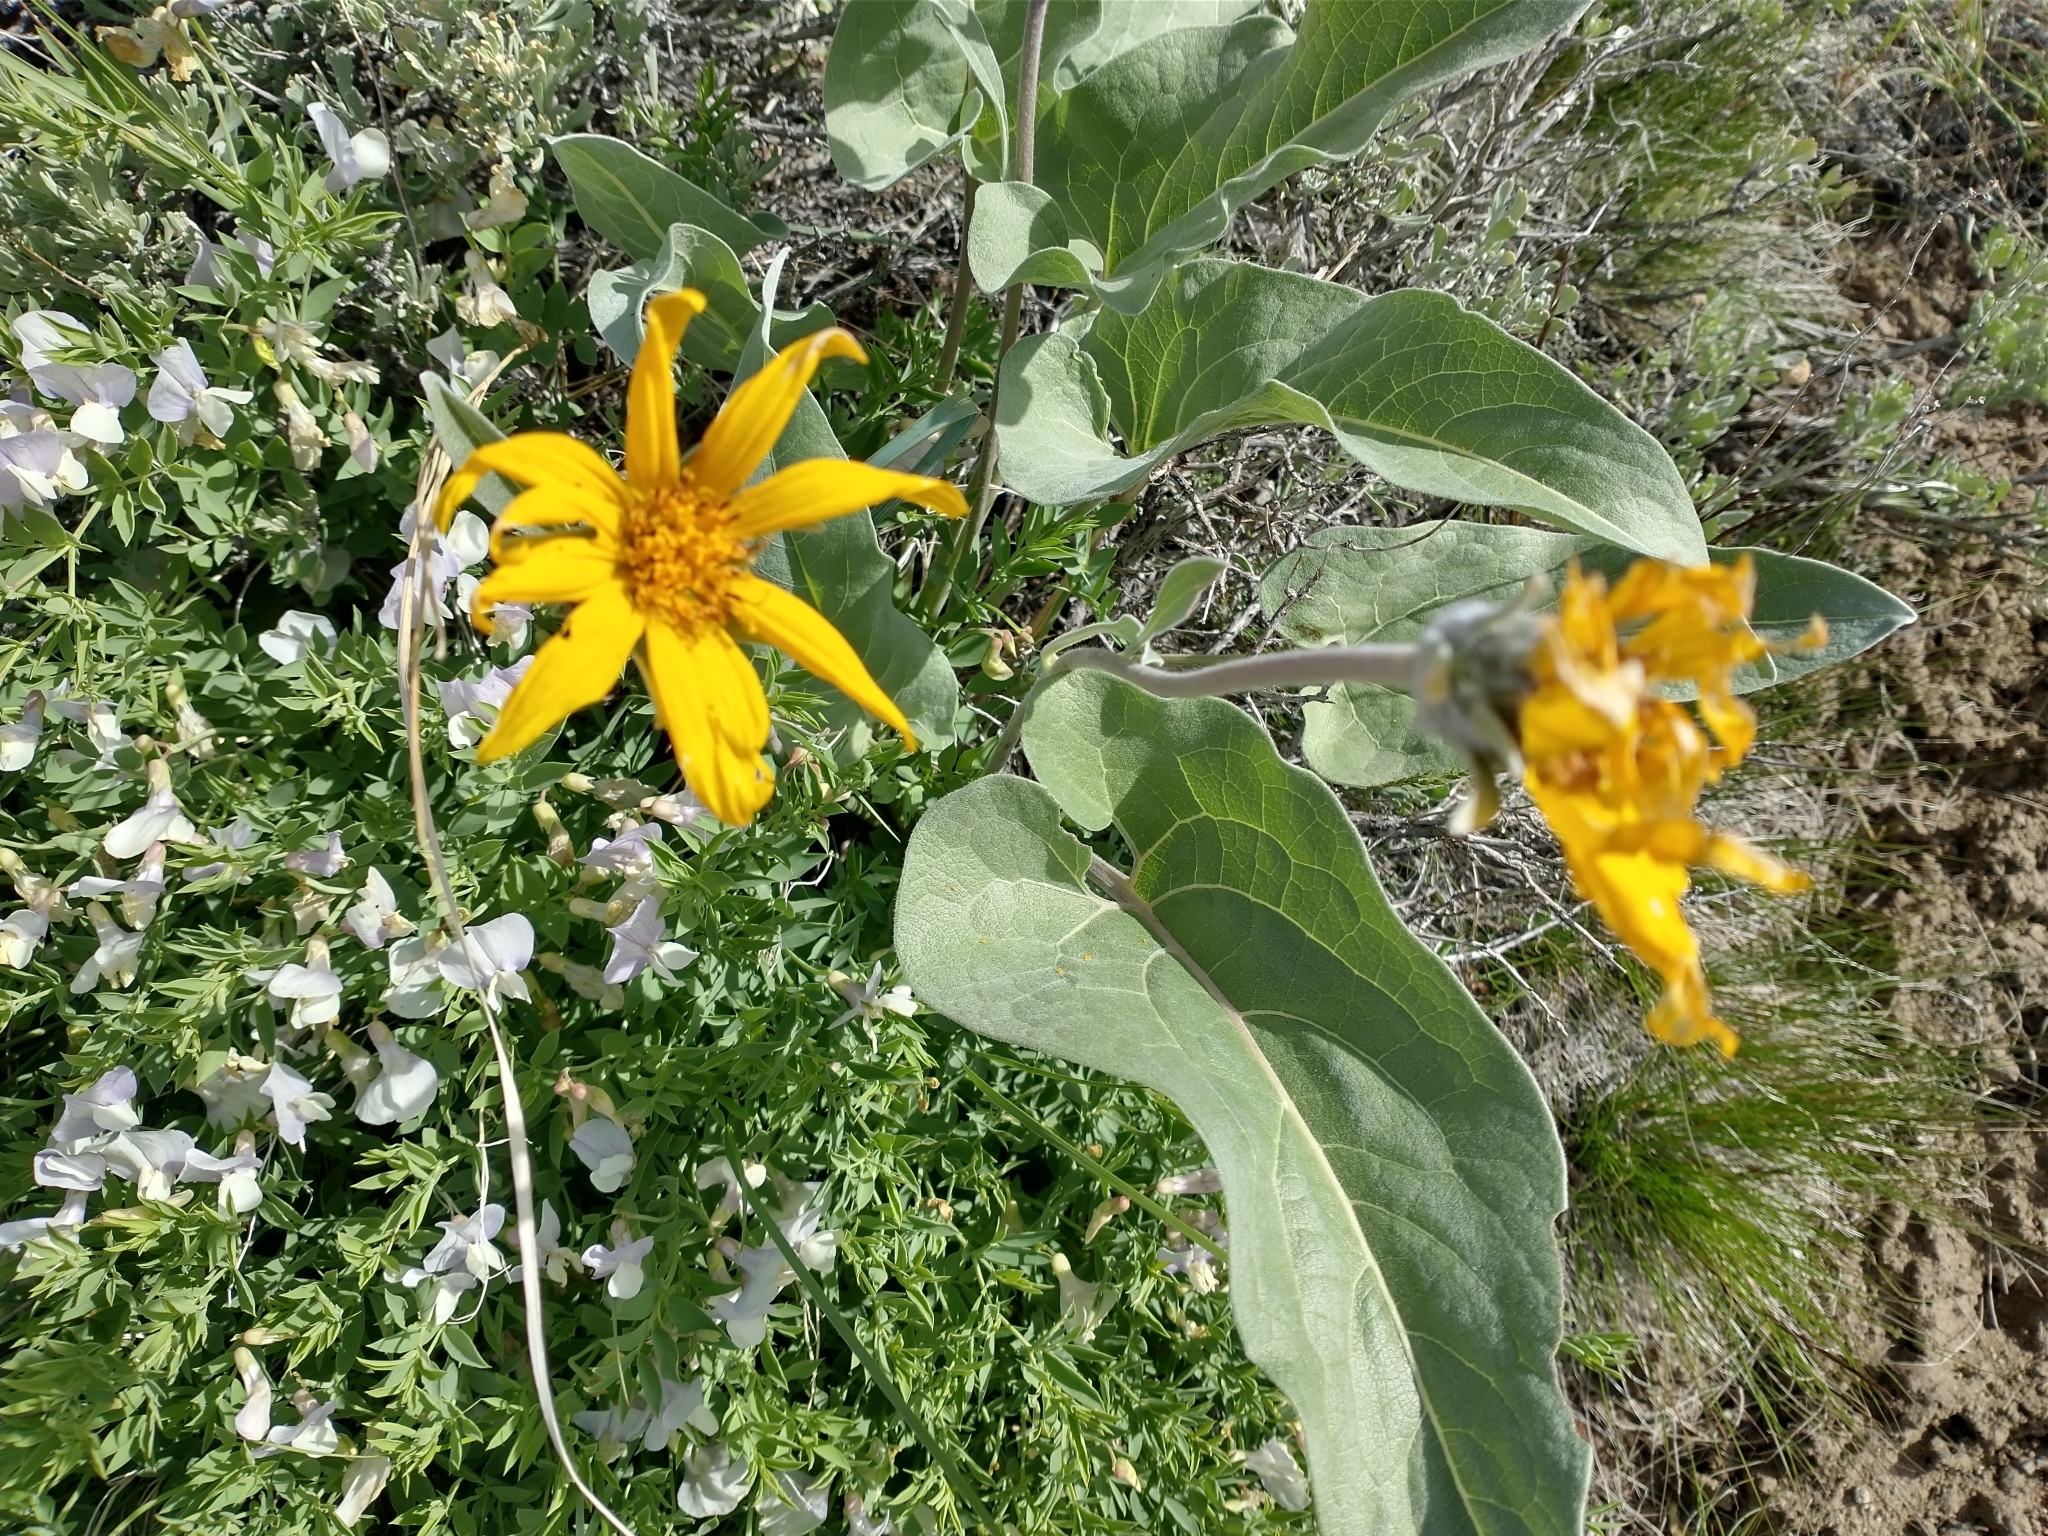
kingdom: Plantae
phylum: Tracheophyta
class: Magnoliopsida
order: Asterales
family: Asteraceae
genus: Wyethia
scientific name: Wyethia sagittata
